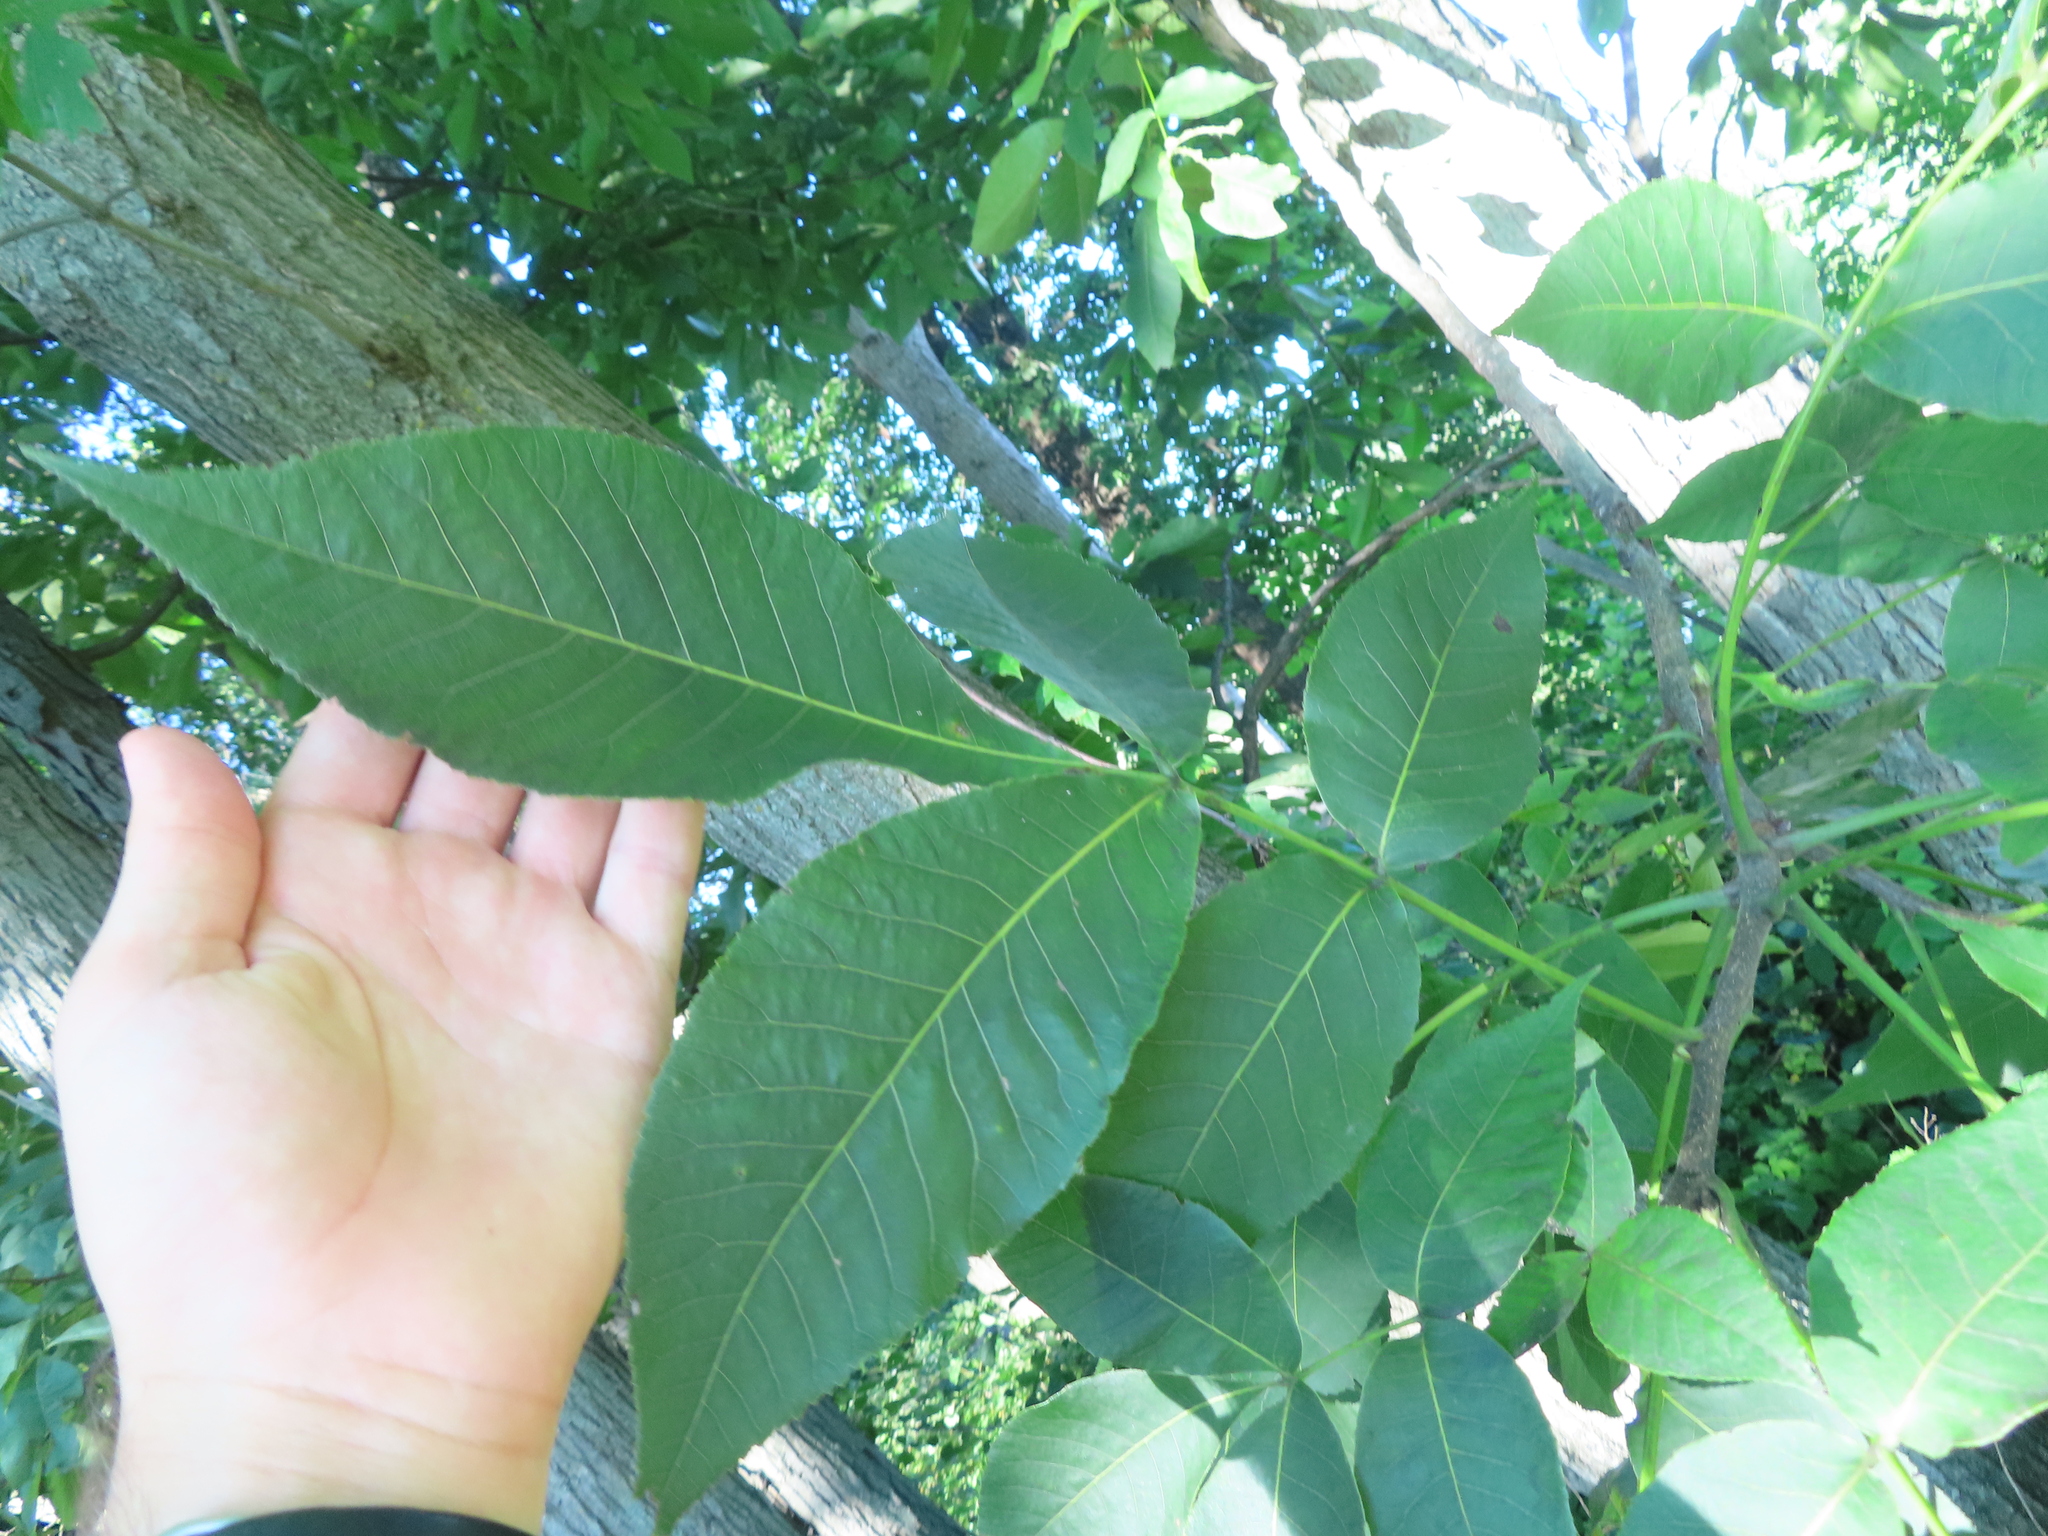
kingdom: Plantae
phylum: Tracheophyta
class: Magnoliopsida
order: Fagales
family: Juglandaceae
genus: Carya
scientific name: Carya ovata
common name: Shagbark hickory
